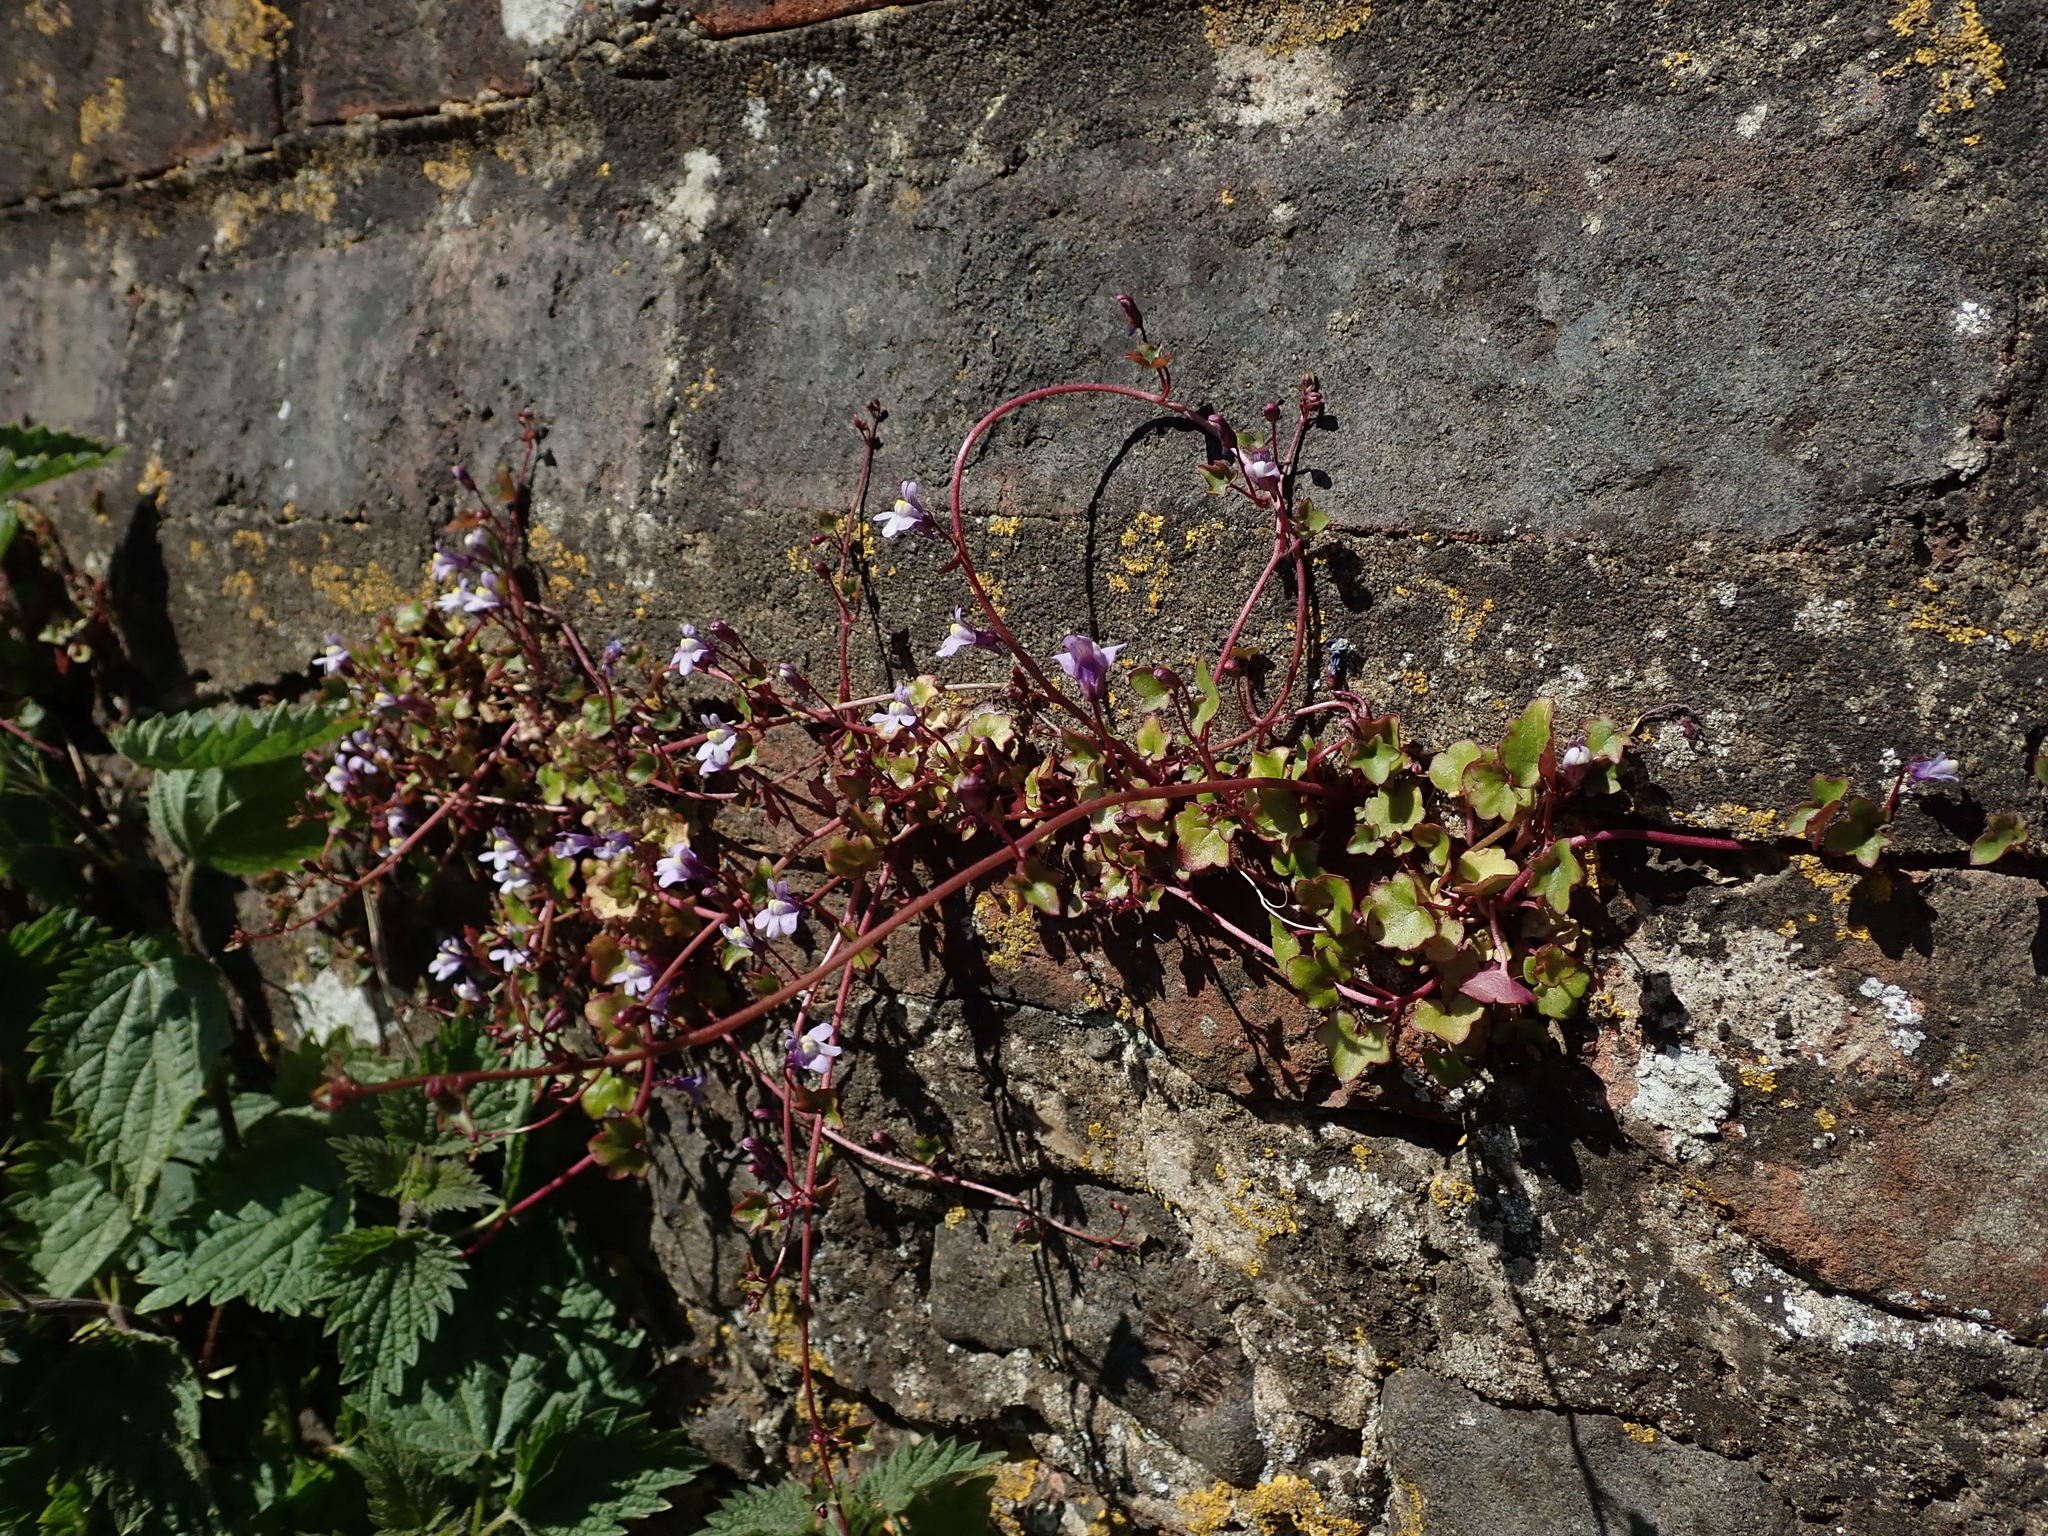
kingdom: Plantae
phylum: Tracheophyta
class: Magnoliopsida
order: Lamiales
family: Plantaginaceae
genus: Cymbalaria
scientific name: Cymbalaria muralis
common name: Ivy-leaved toadflax
